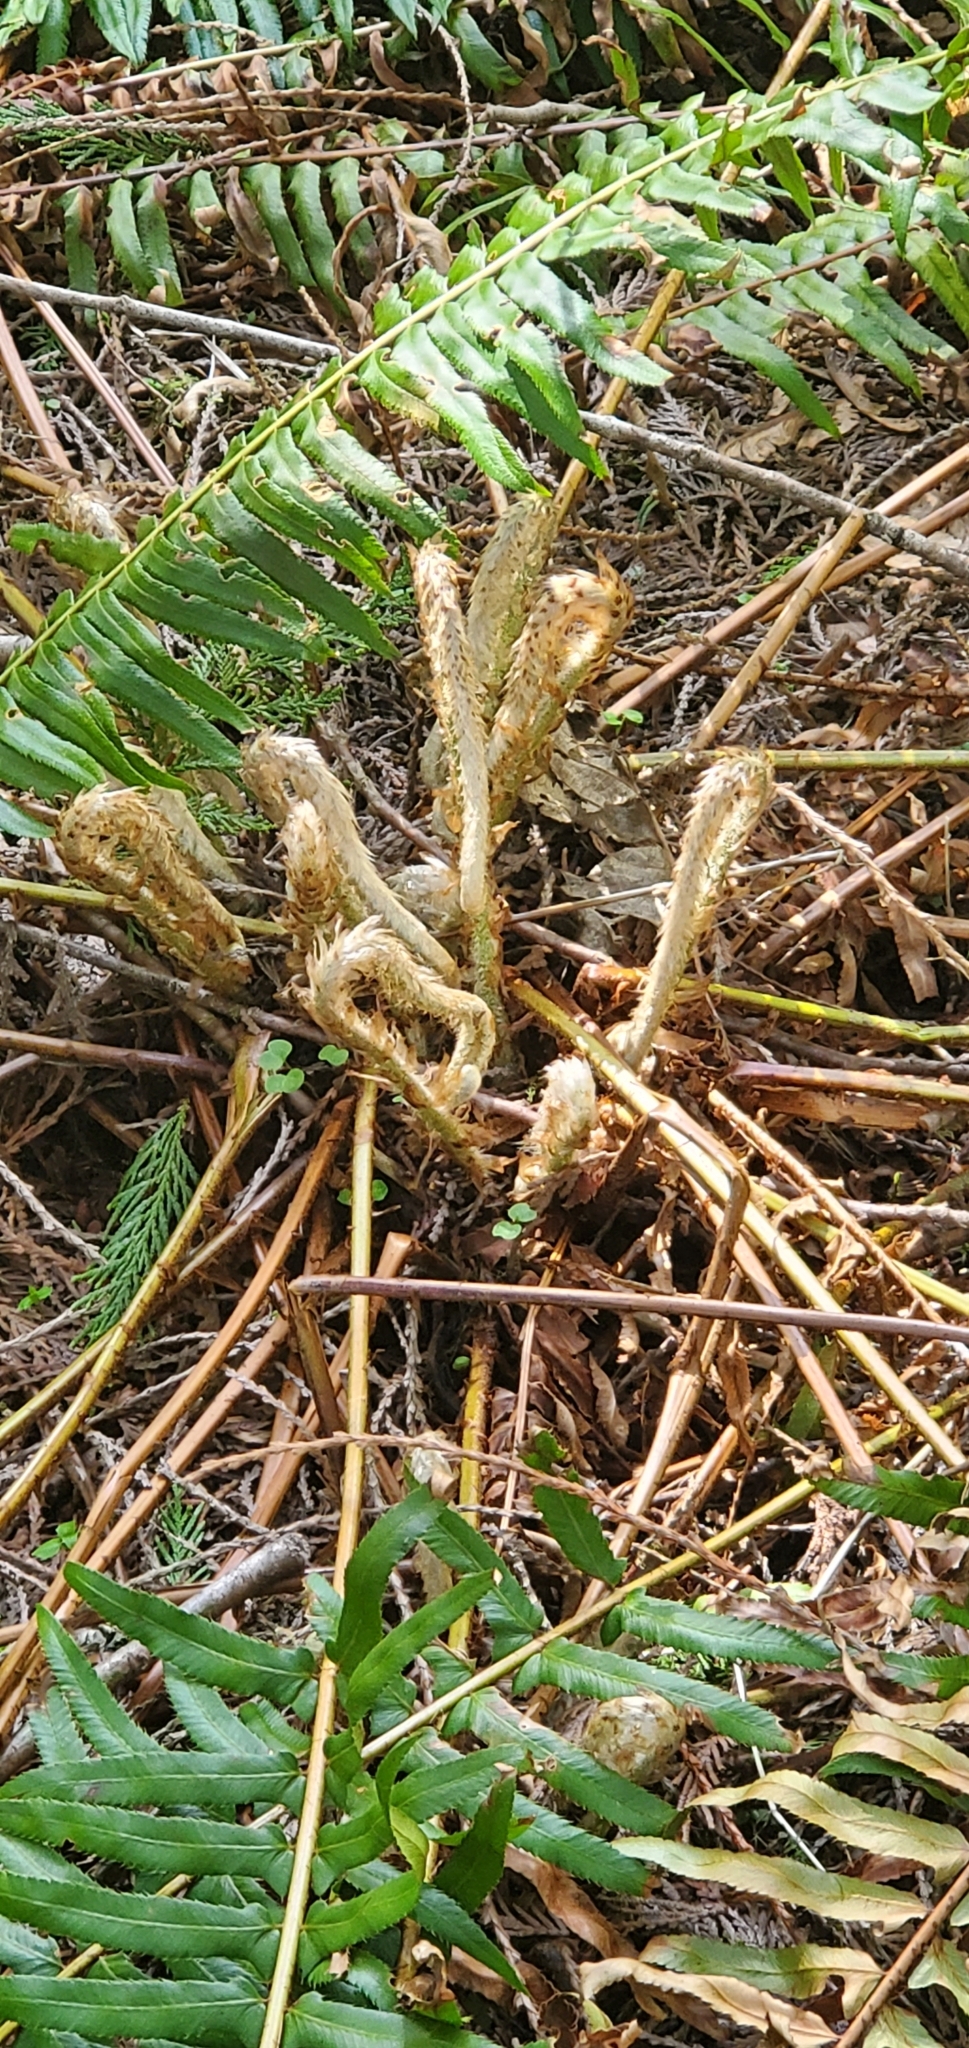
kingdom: Plantae
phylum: Tracheophyta
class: Polypodiopsida
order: Polypodiales
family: Dryopteridaceae
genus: Polystichum
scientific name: Polystichum munitum
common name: Western sword-fern
